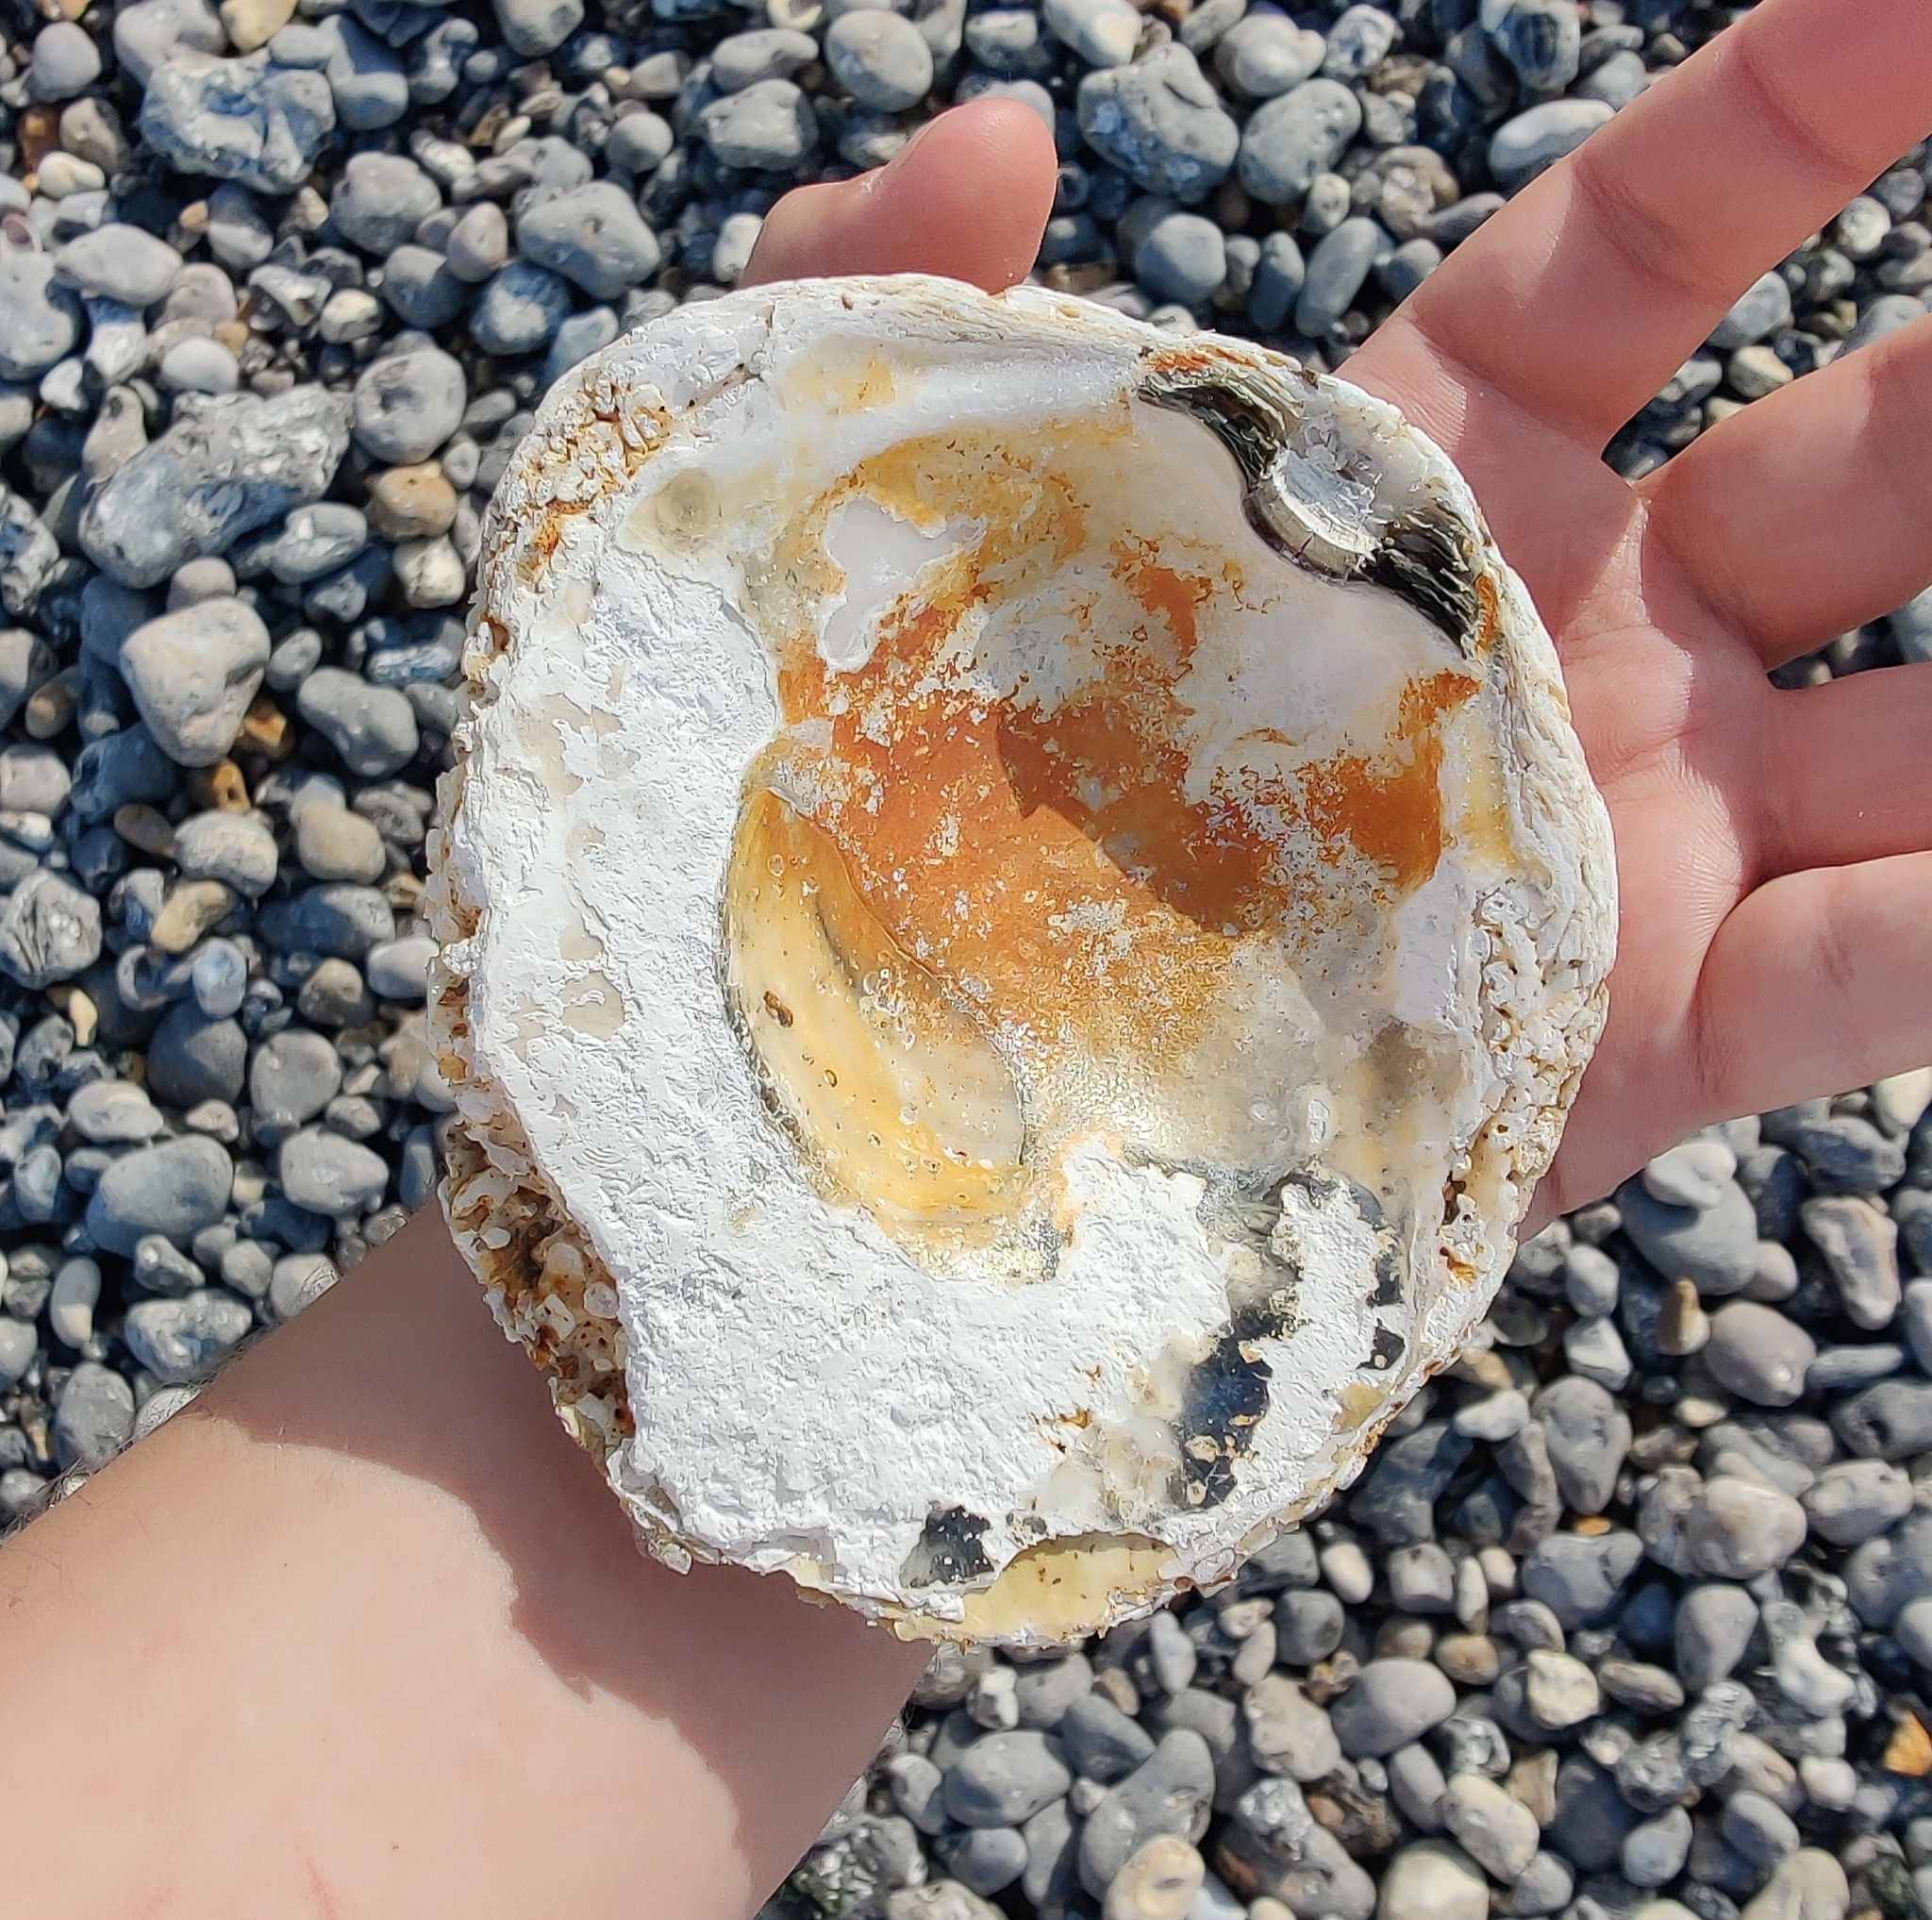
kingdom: Animalia
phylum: Mollusca
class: Bivalvia
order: Ostreida
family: Ostreidae
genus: Ostrea
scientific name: Ostrea edulis
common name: Flat oyster
